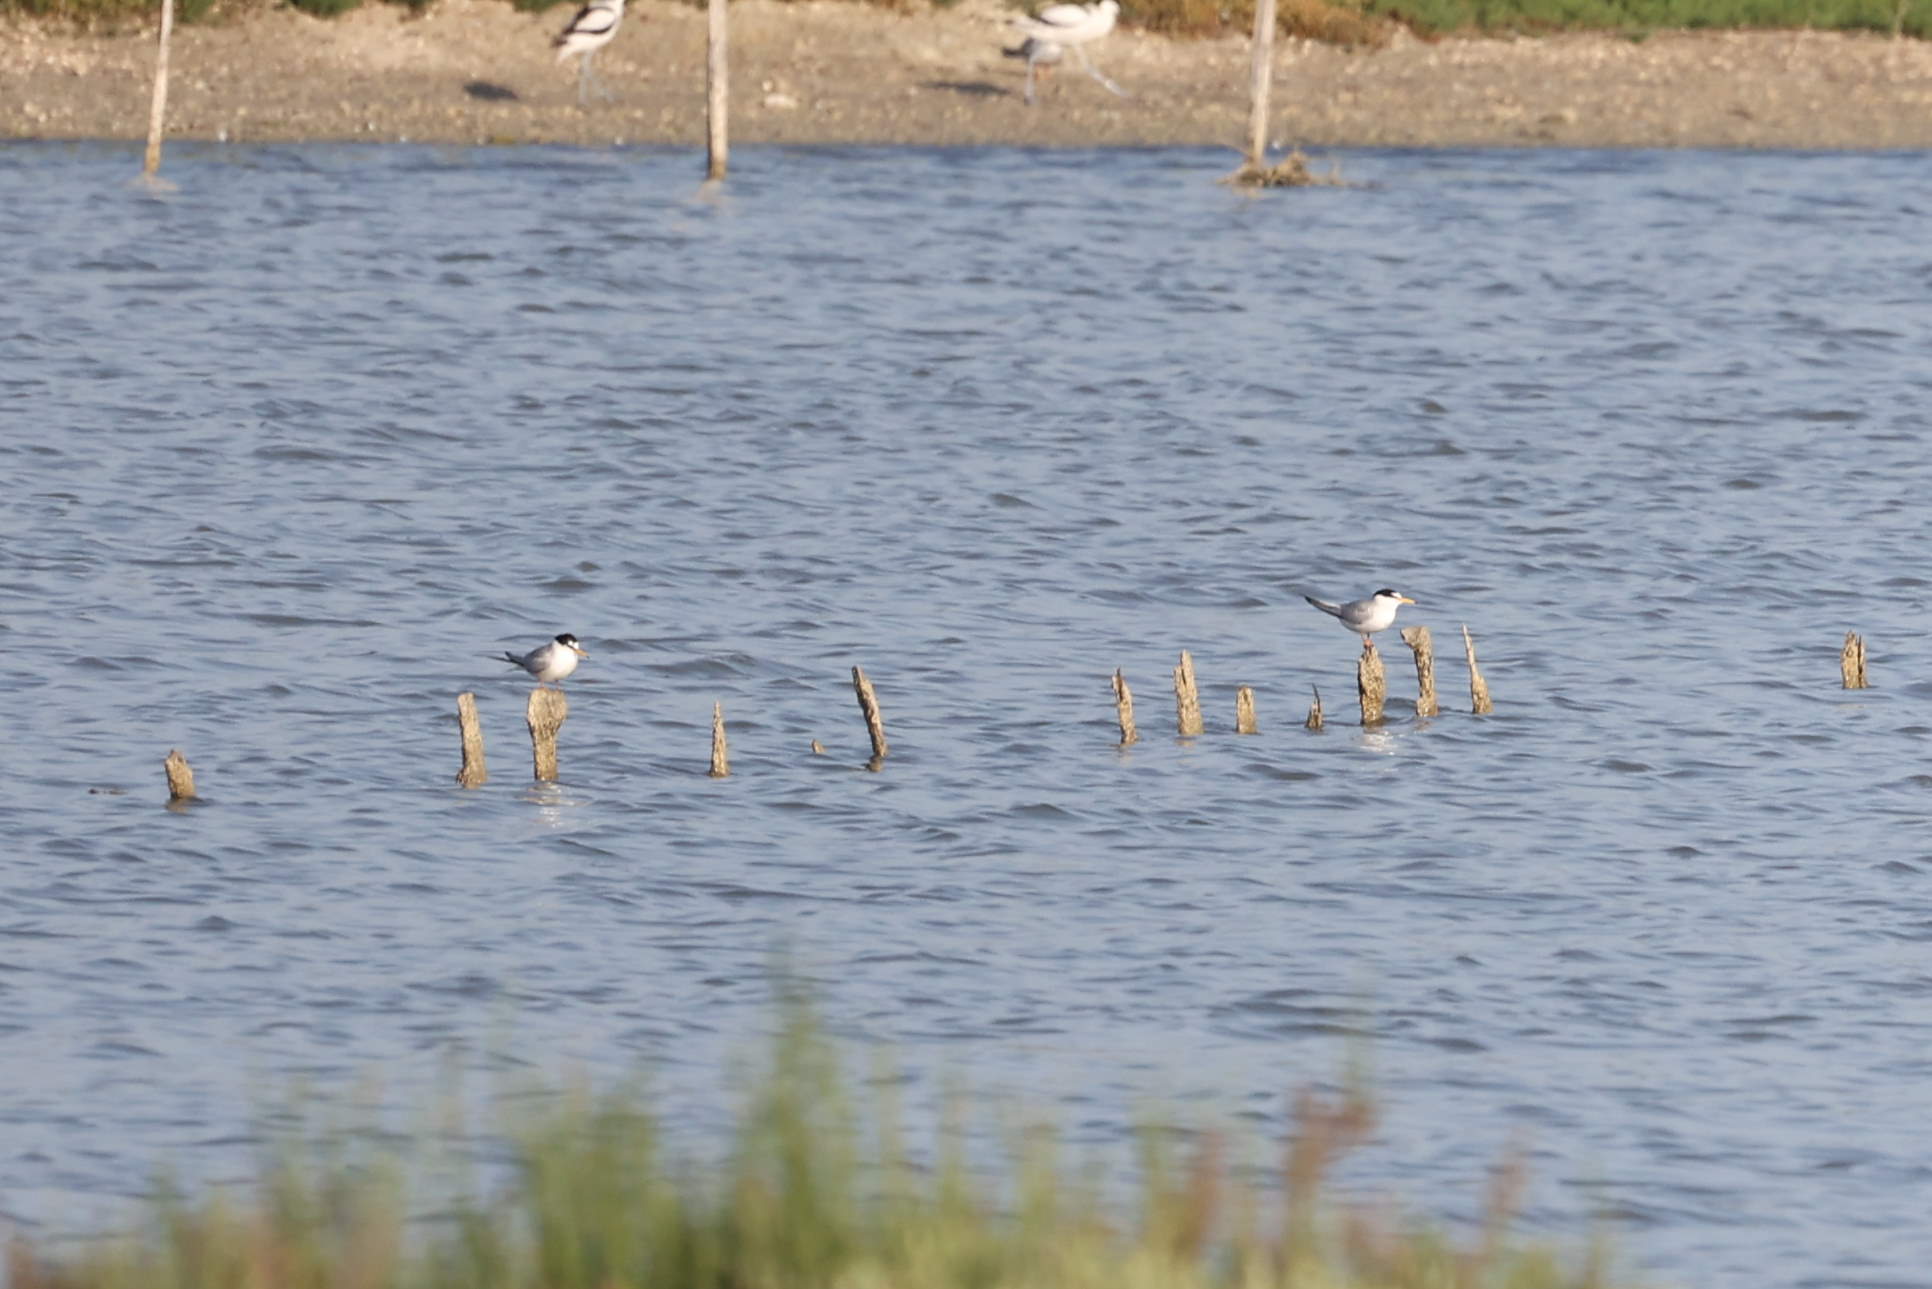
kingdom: Animalia
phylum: Chordata
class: Aves
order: Charadriiformes
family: Laridae
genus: Sternula
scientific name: Sternula albifrons
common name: Little tern
